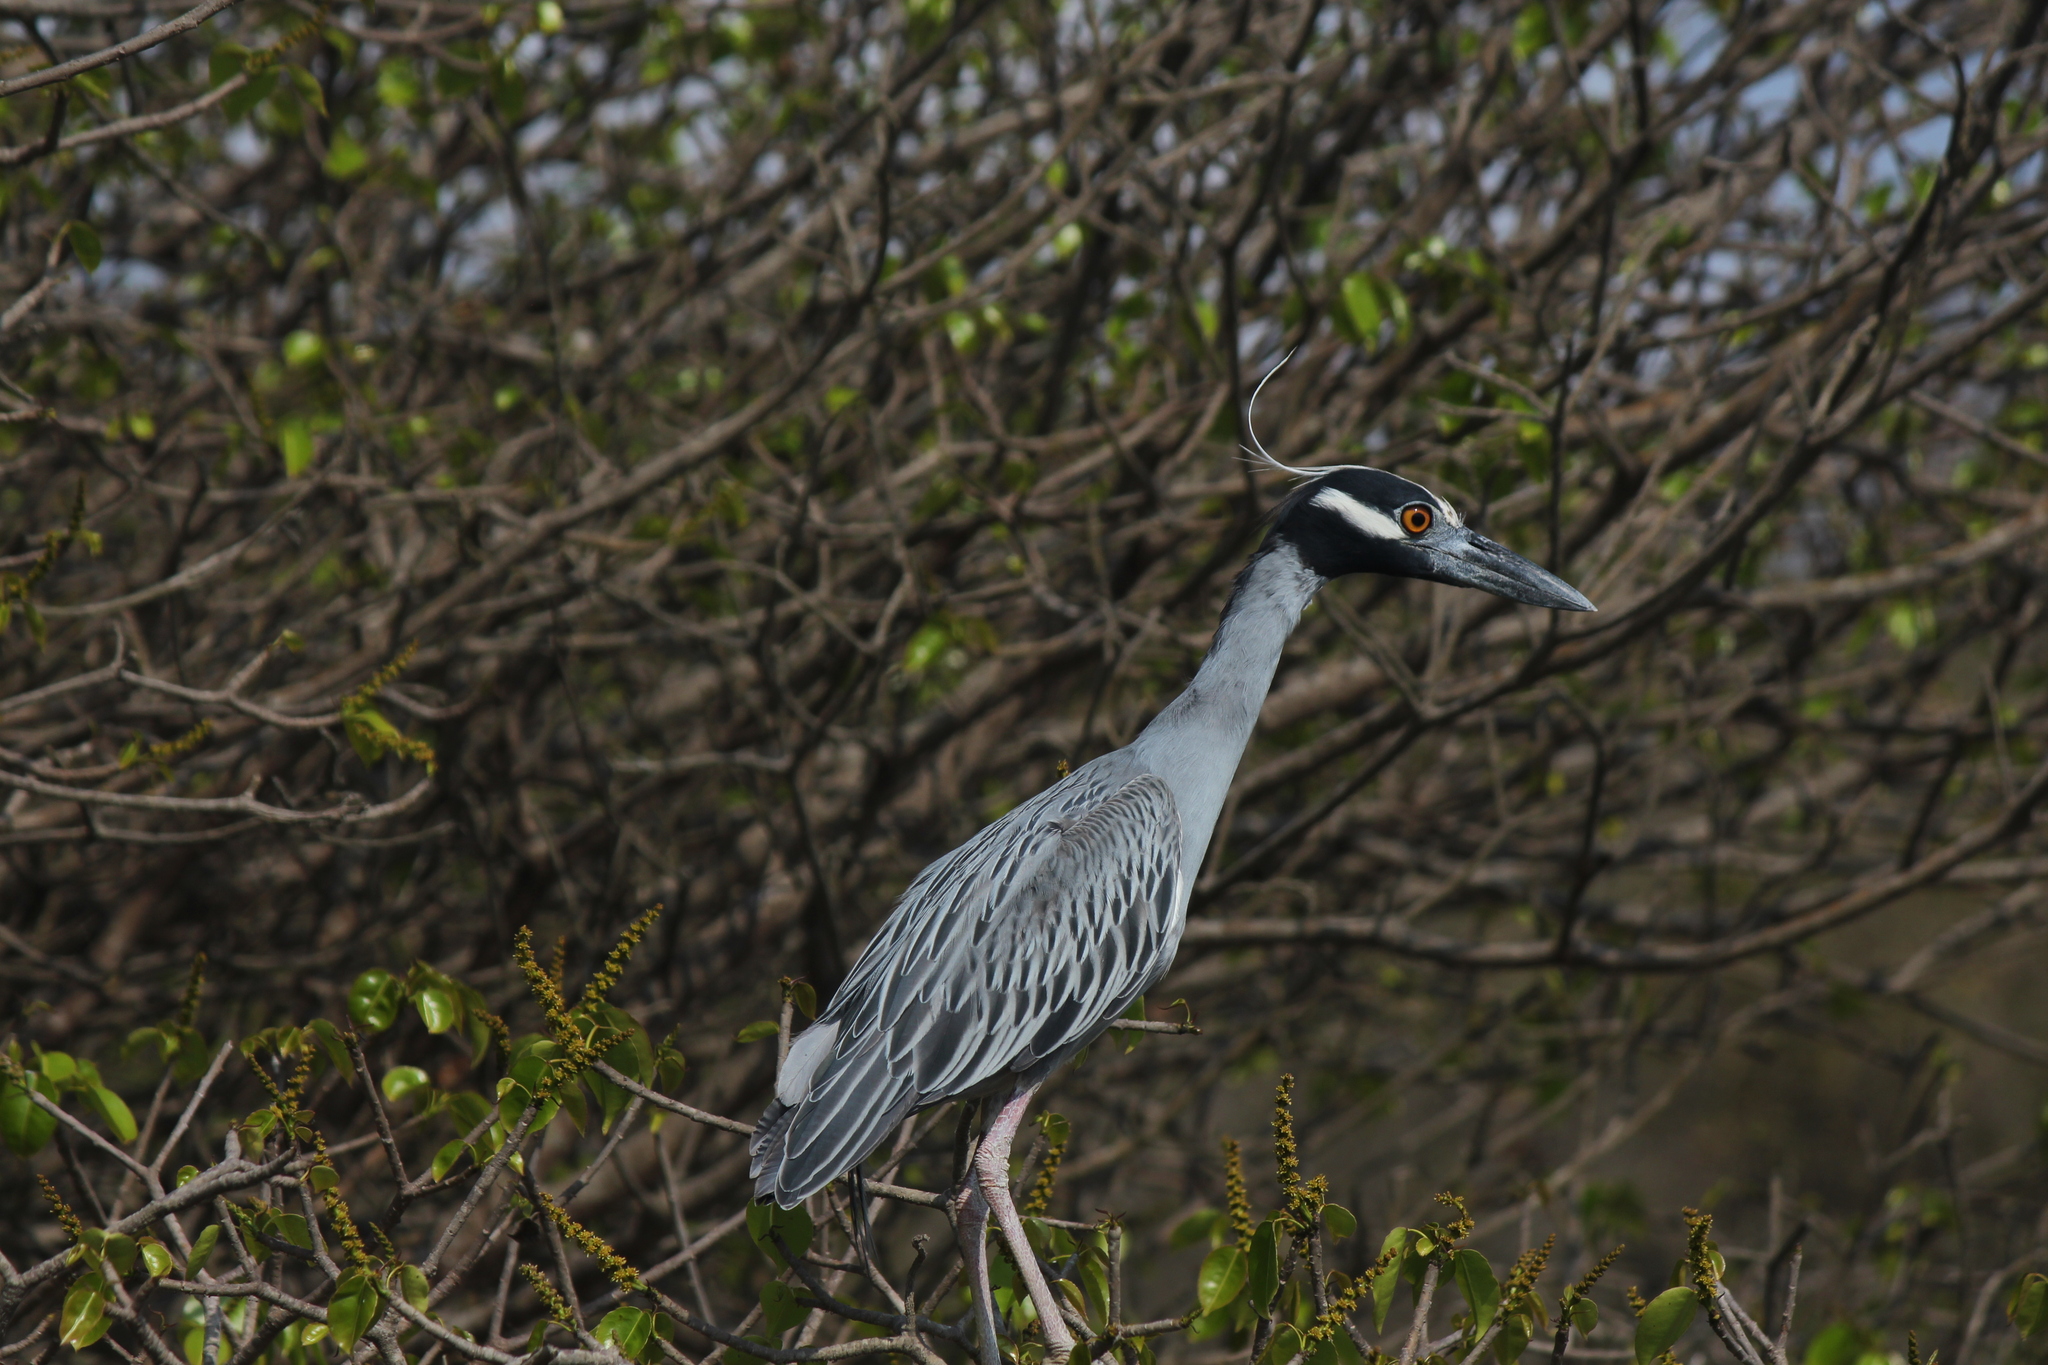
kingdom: Animalia
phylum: Chordata
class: Aves
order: Pelecaniformes
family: Ardeidae
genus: Nyctanassa
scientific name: Nyctanassa violacea
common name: Yellow-crowned night heron
